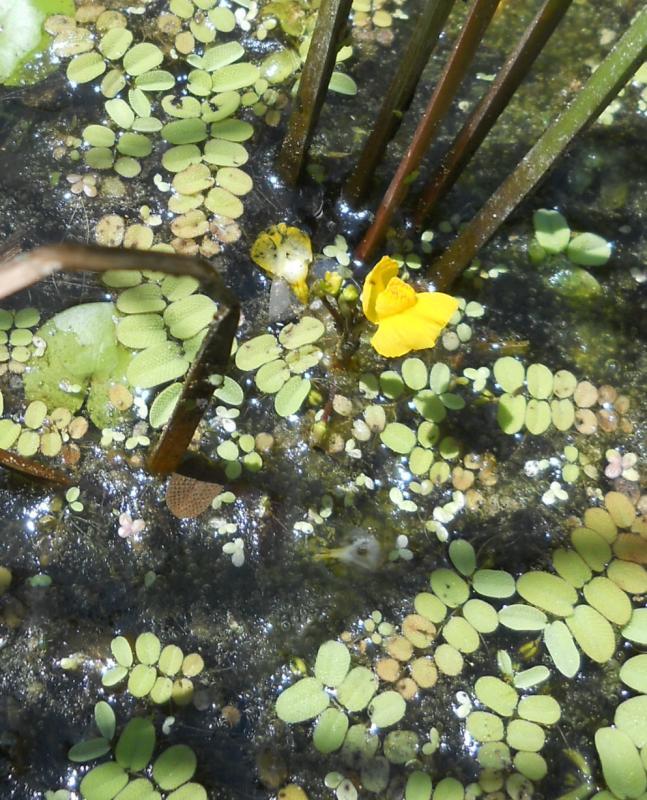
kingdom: Plantae
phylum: Tracheophyta
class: Polypodiopsida
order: Salviniales
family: Salviniaceae
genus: Salvinia
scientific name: Salvinia natans
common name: Floating fern
